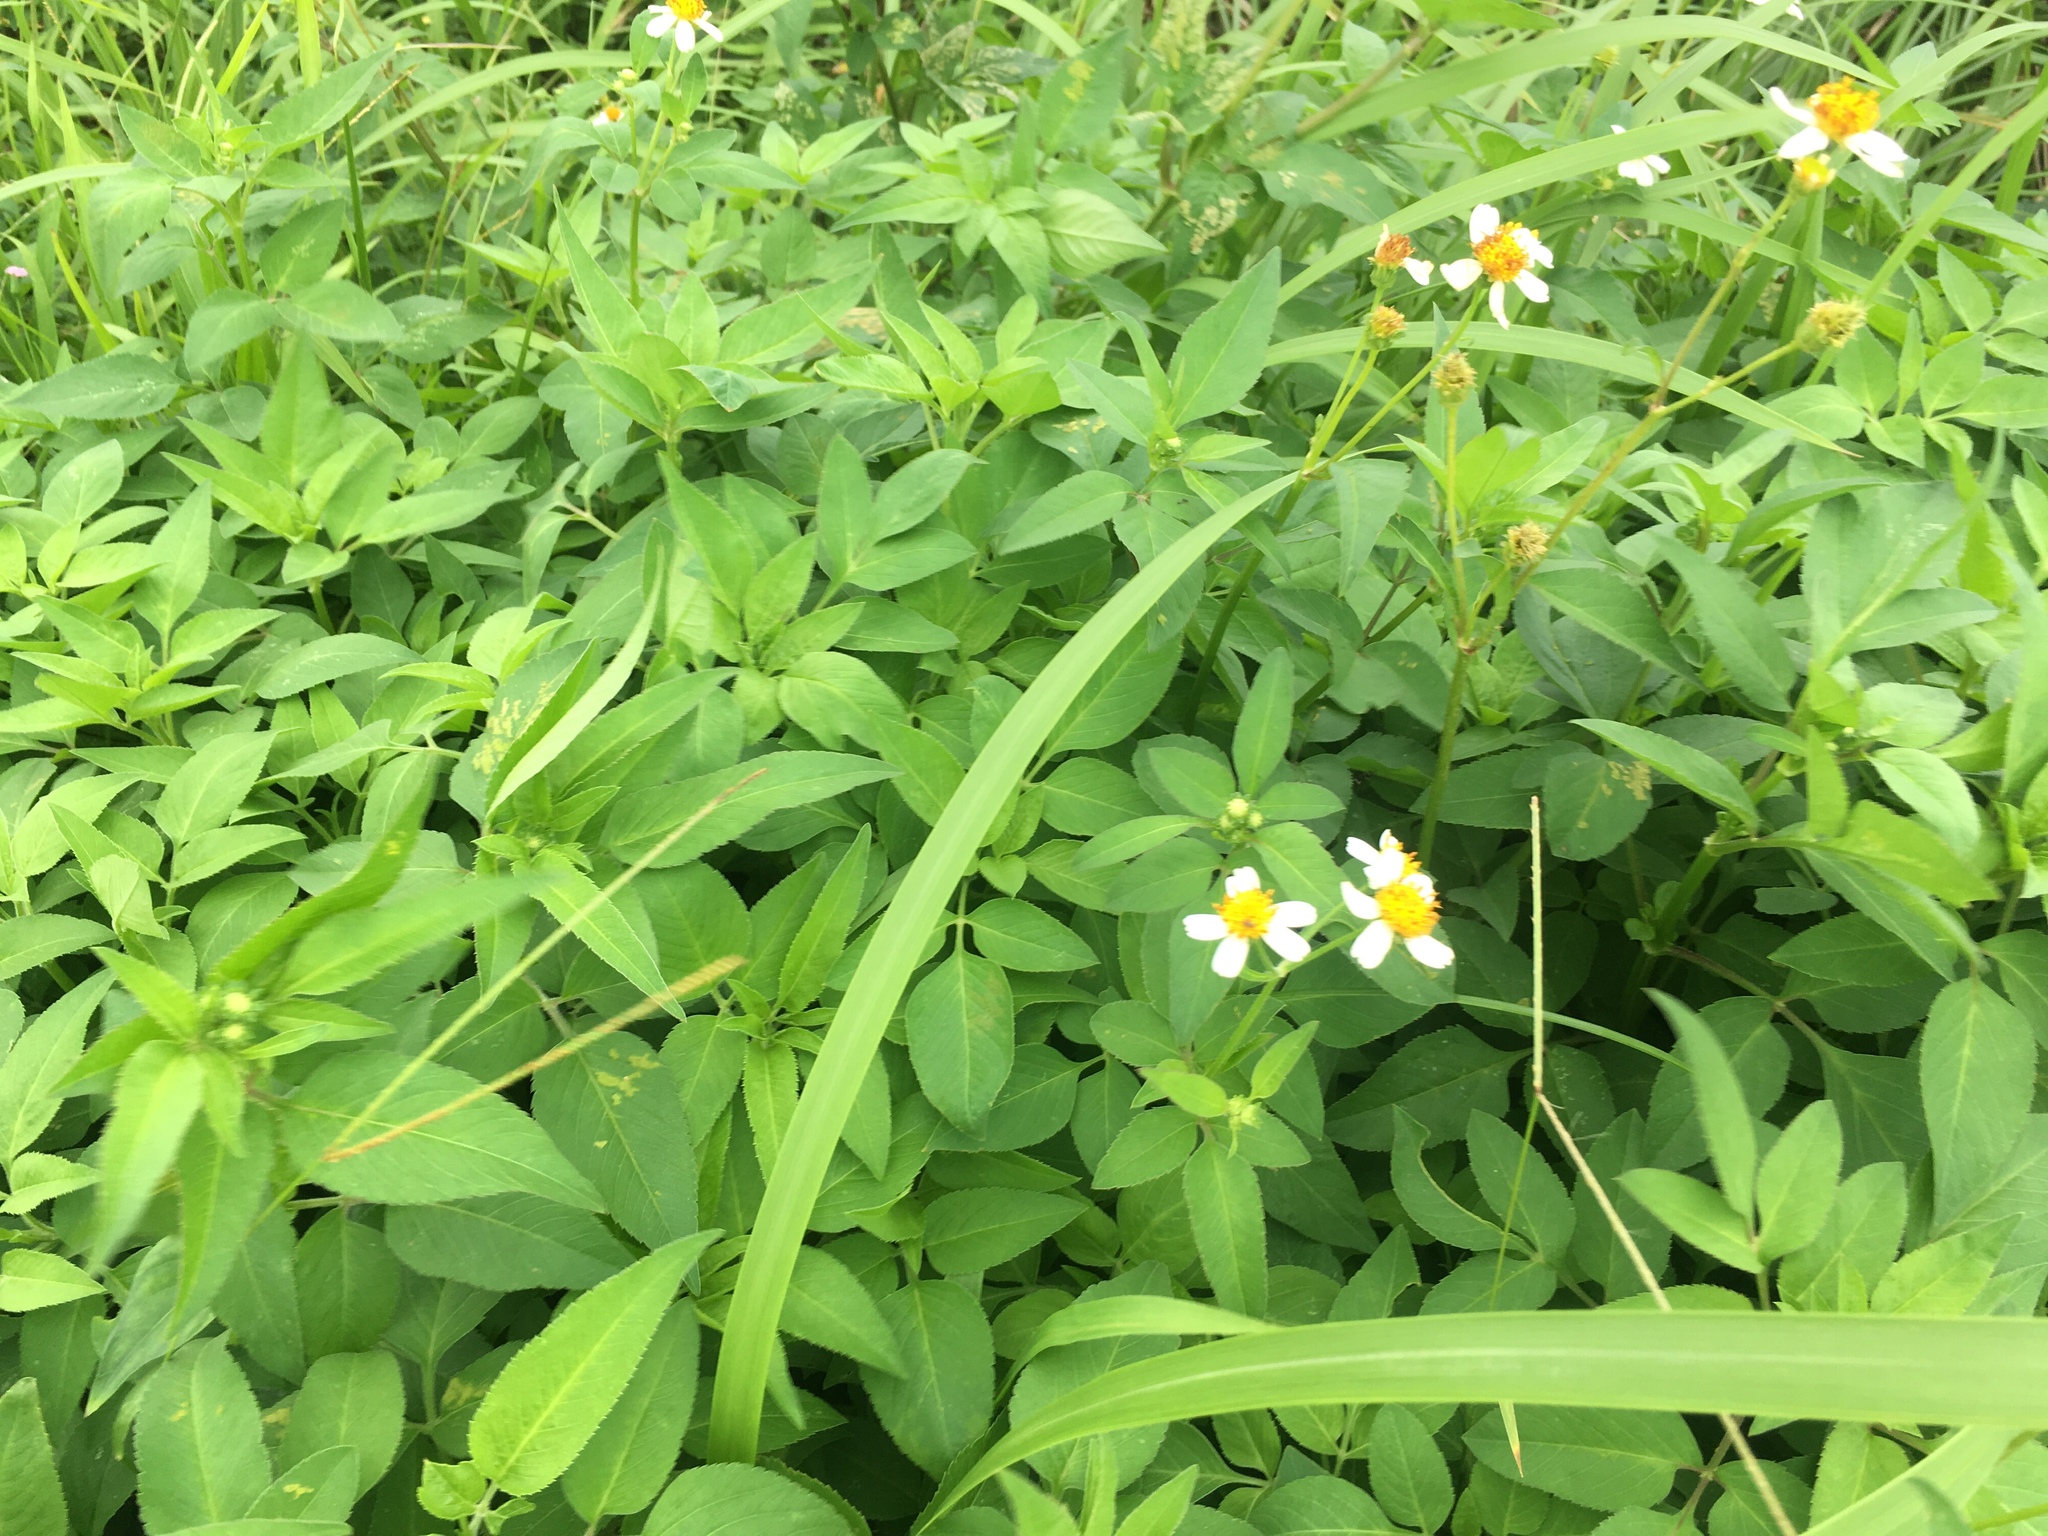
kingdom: Plantae
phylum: Tracheophyta
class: Magnoliopsida
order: Asterales
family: Asteraceae
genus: Bidens
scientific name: Bidens alba
